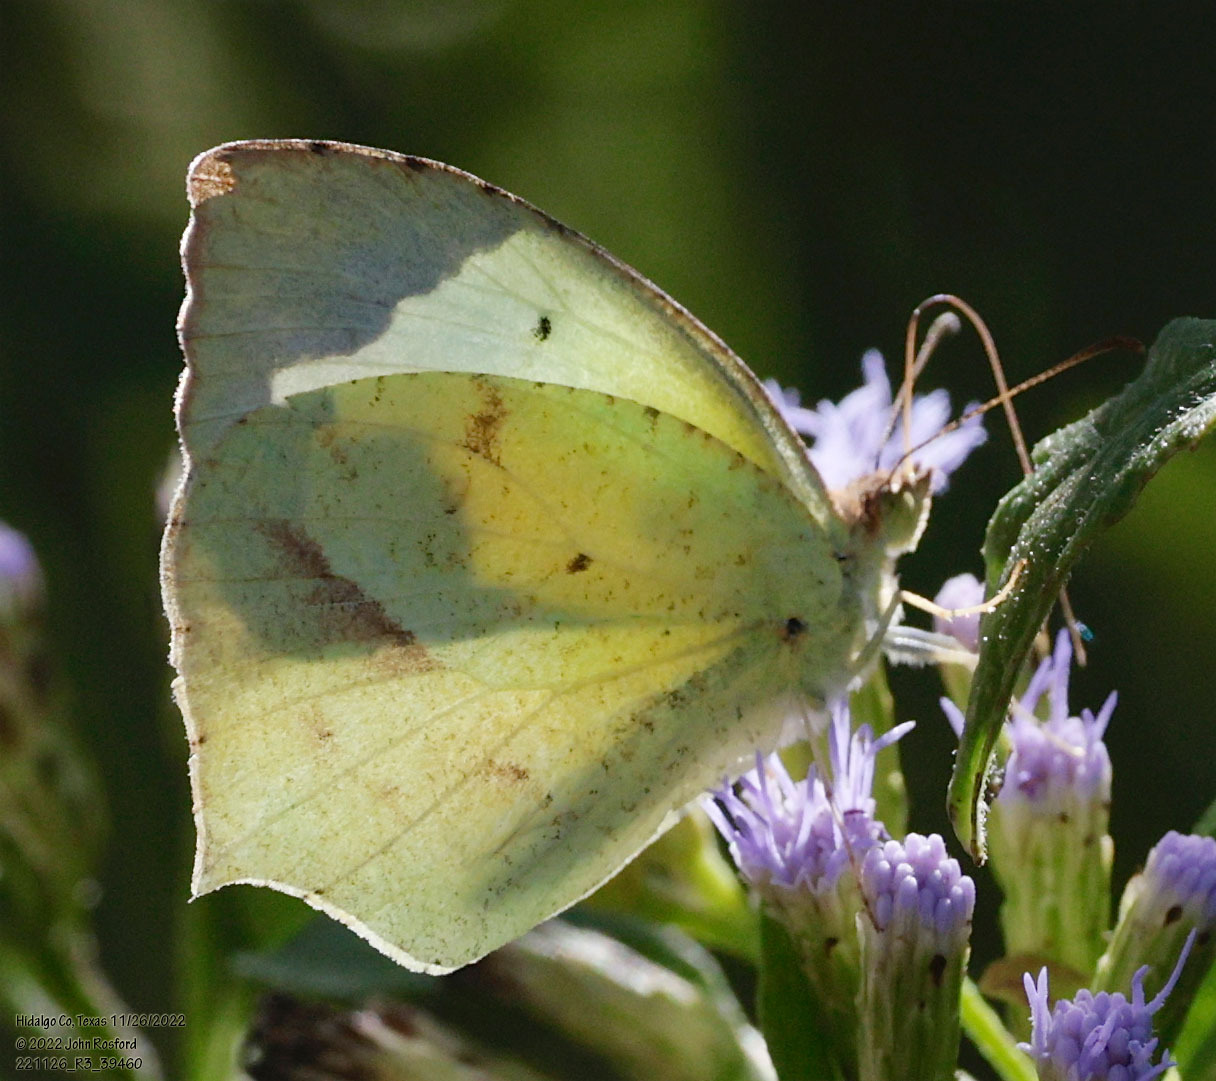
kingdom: Animalia
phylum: Arthropoda
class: Insecta
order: Lepidoptera
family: Pieridae
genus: Abaeis
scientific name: Abaeis mexicana
